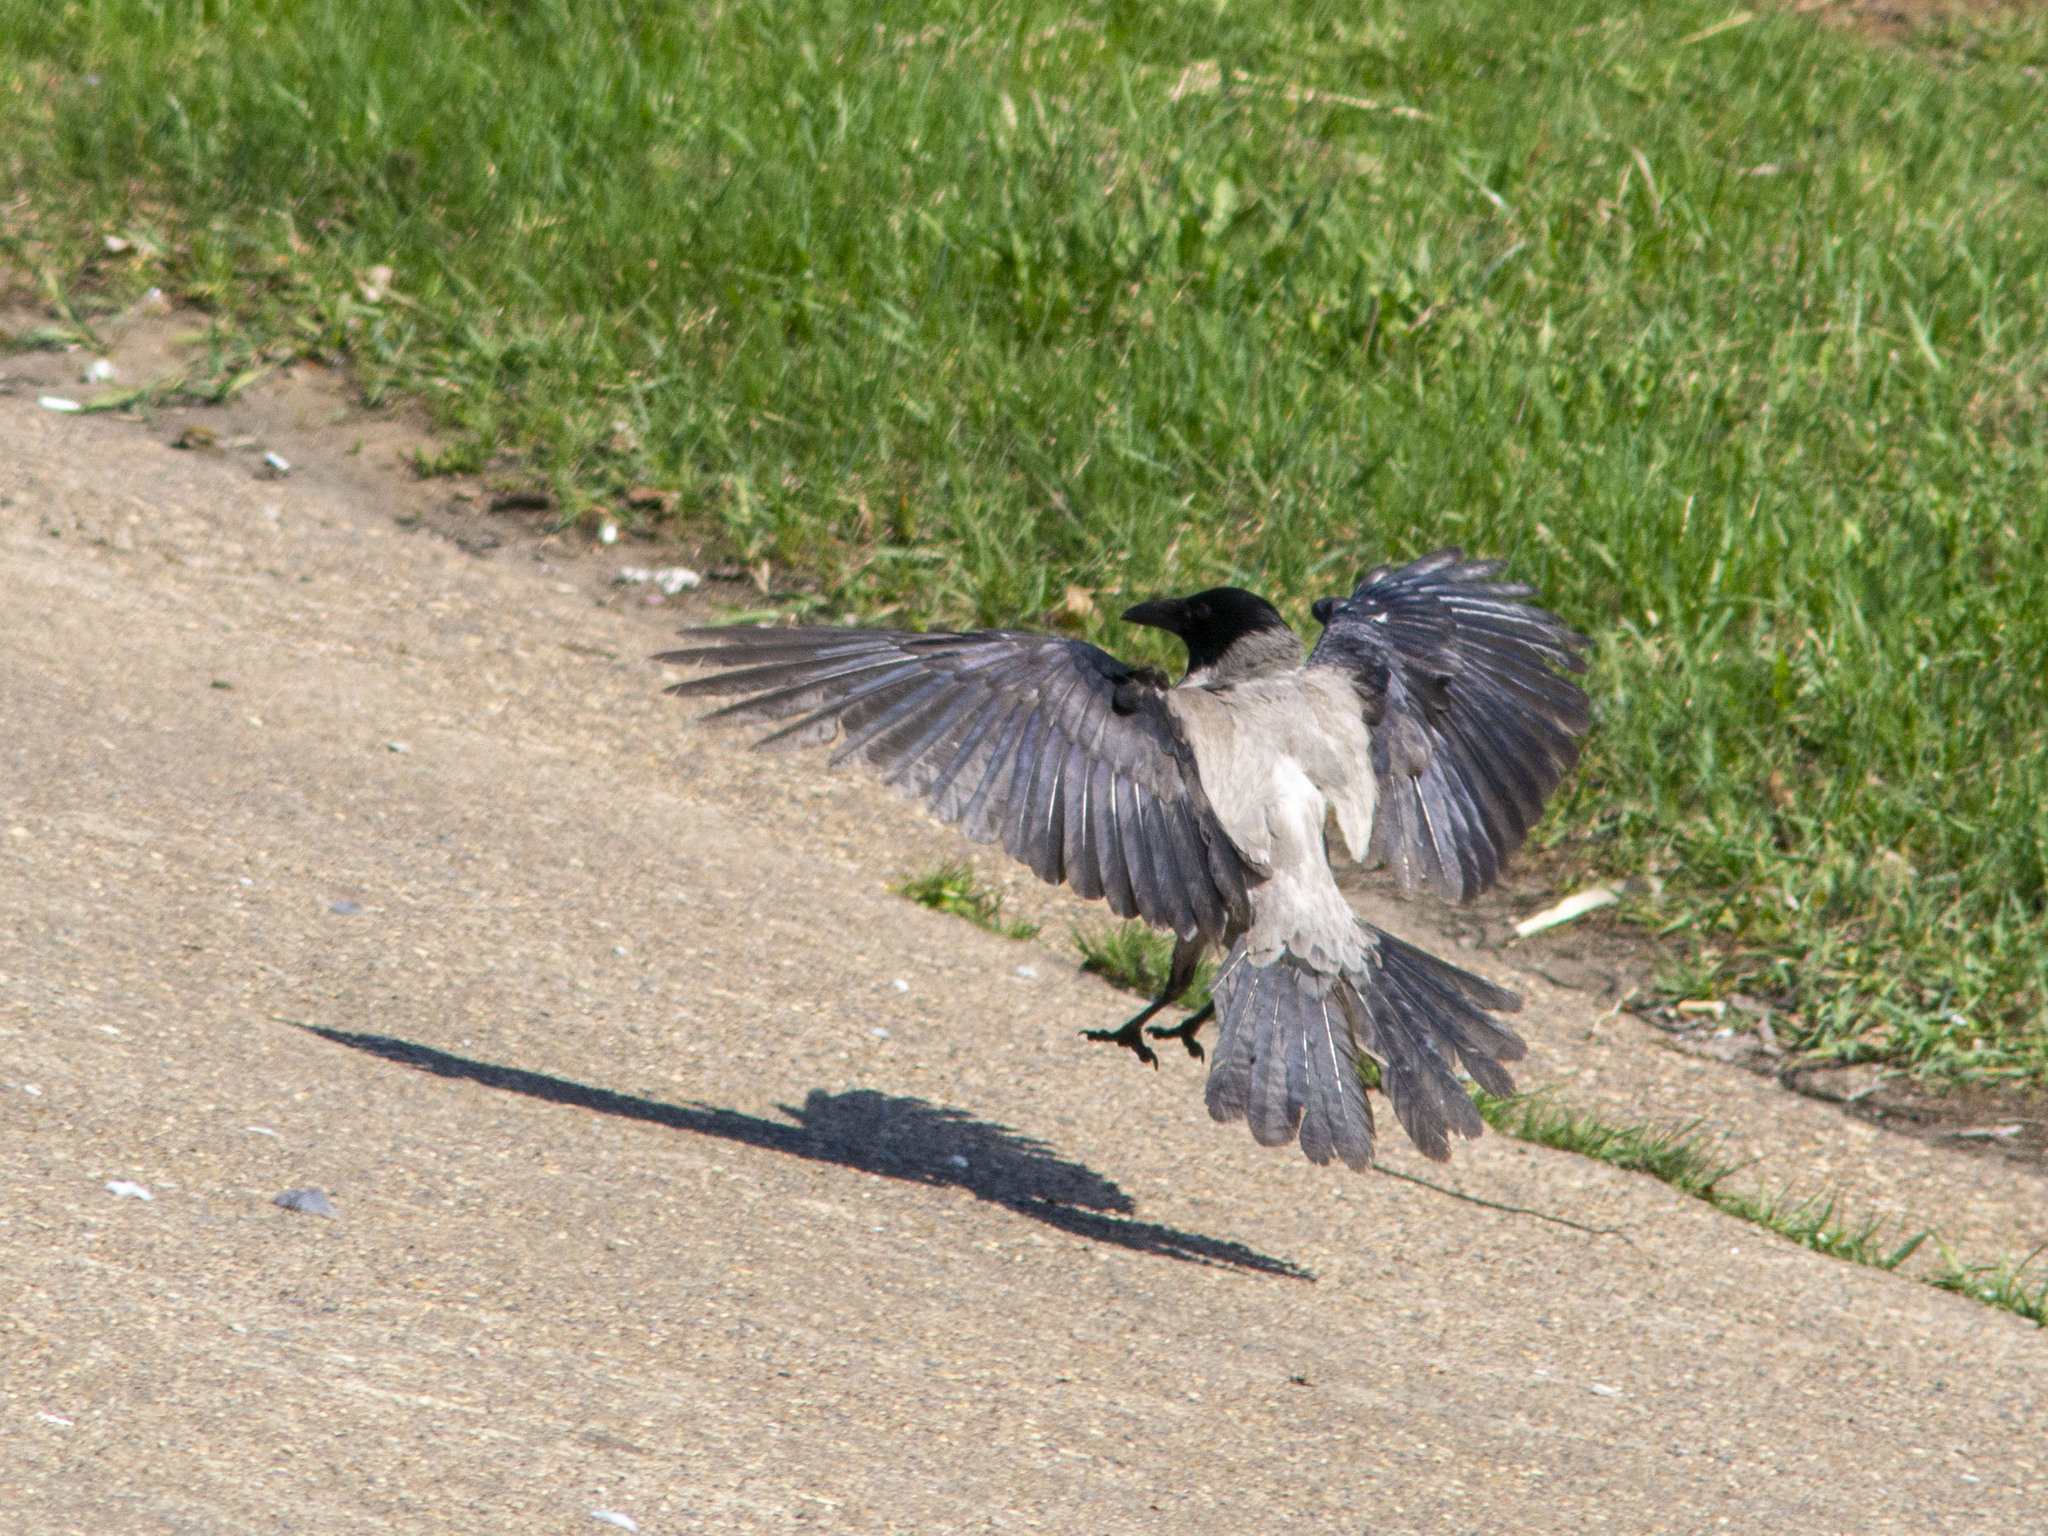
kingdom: Animalia
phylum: Chordata
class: Aves
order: Passeriformes
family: Corvidae
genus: Corvus
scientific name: Corvus cornix
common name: Hooded crow
